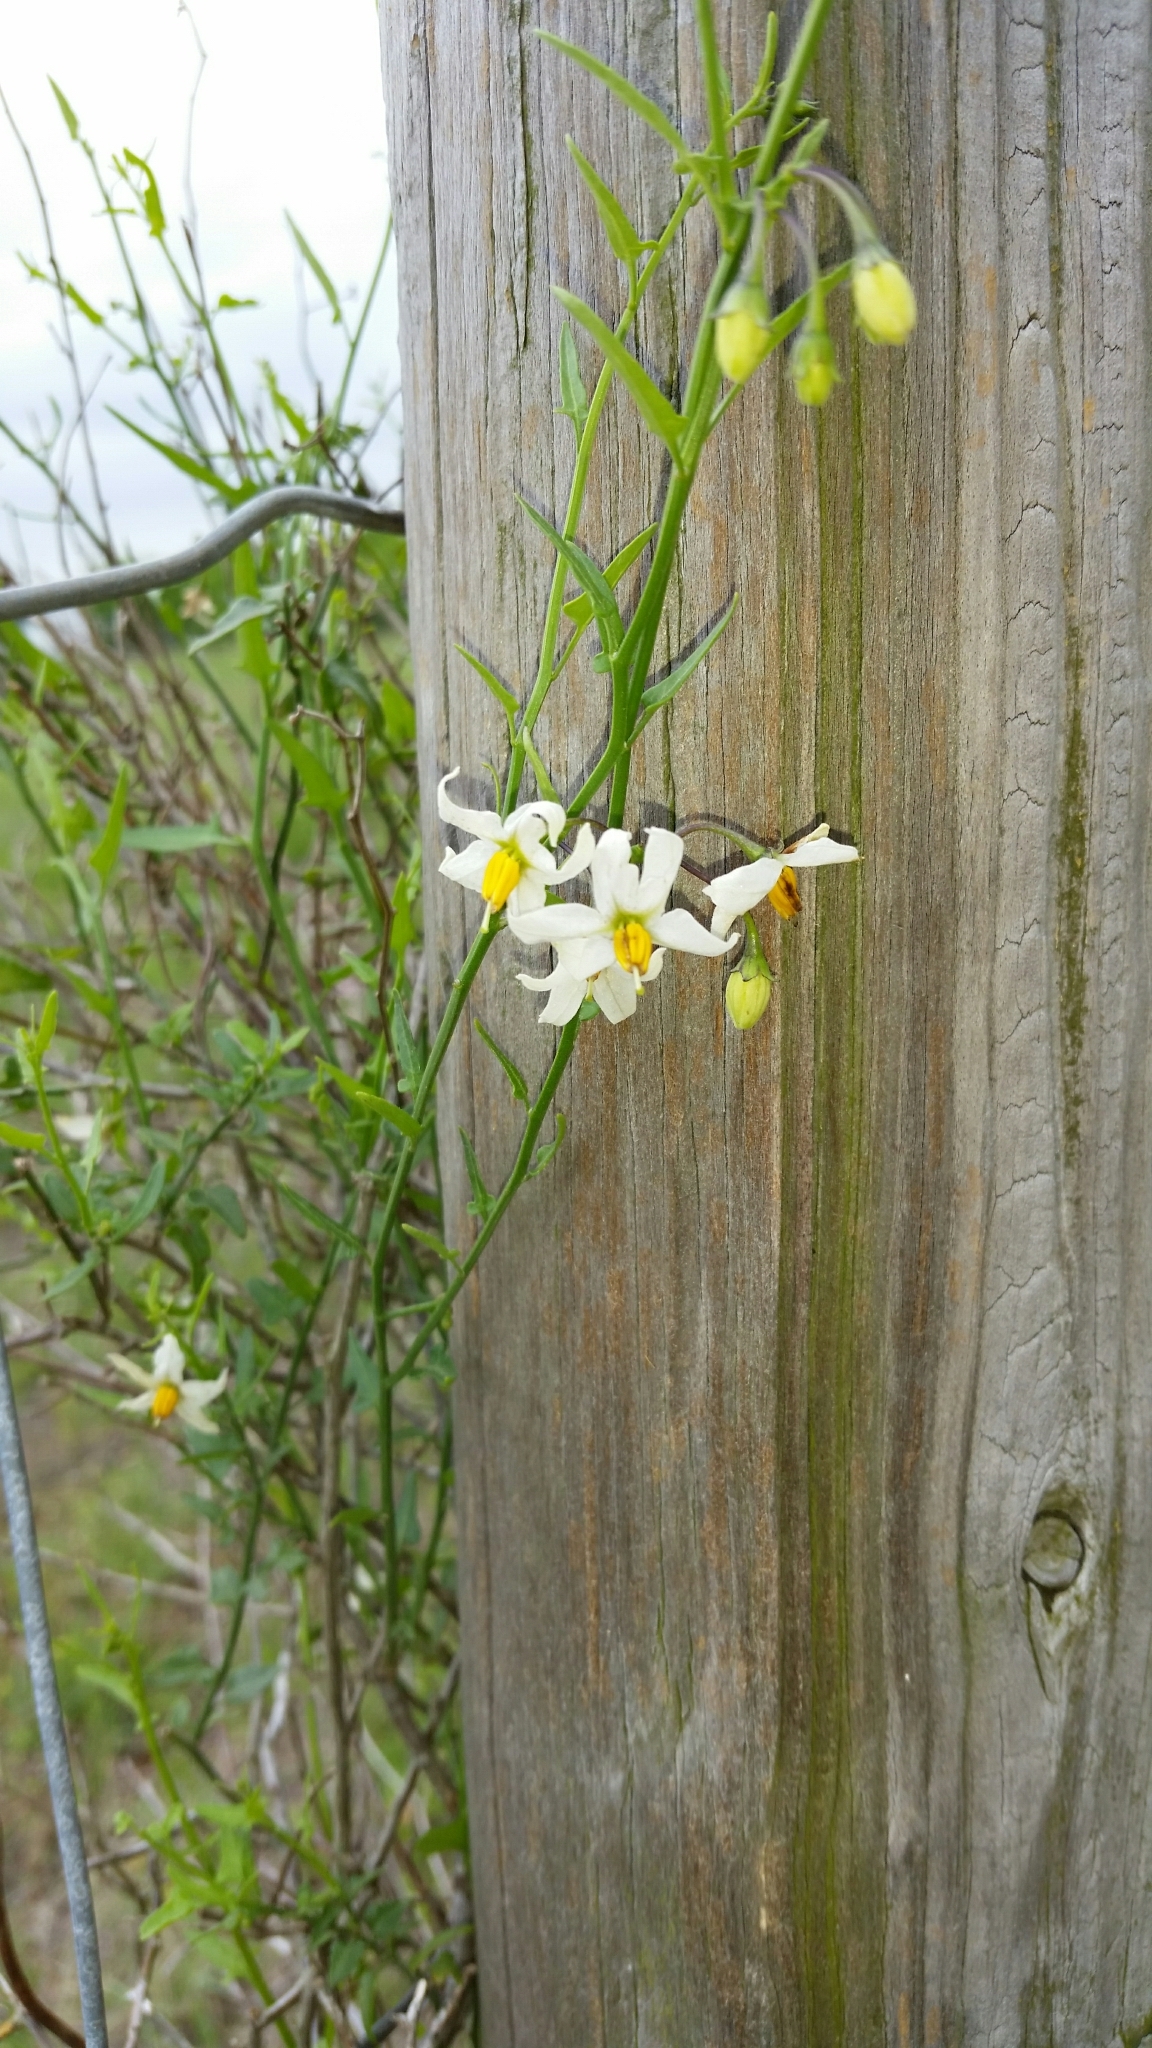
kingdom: Plantae
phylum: Tracheophyta
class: Magnoliopsida
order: Solanales
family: Solanaceae
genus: Solanum
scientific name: Solanum triquetrum
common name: Texas nightshade
